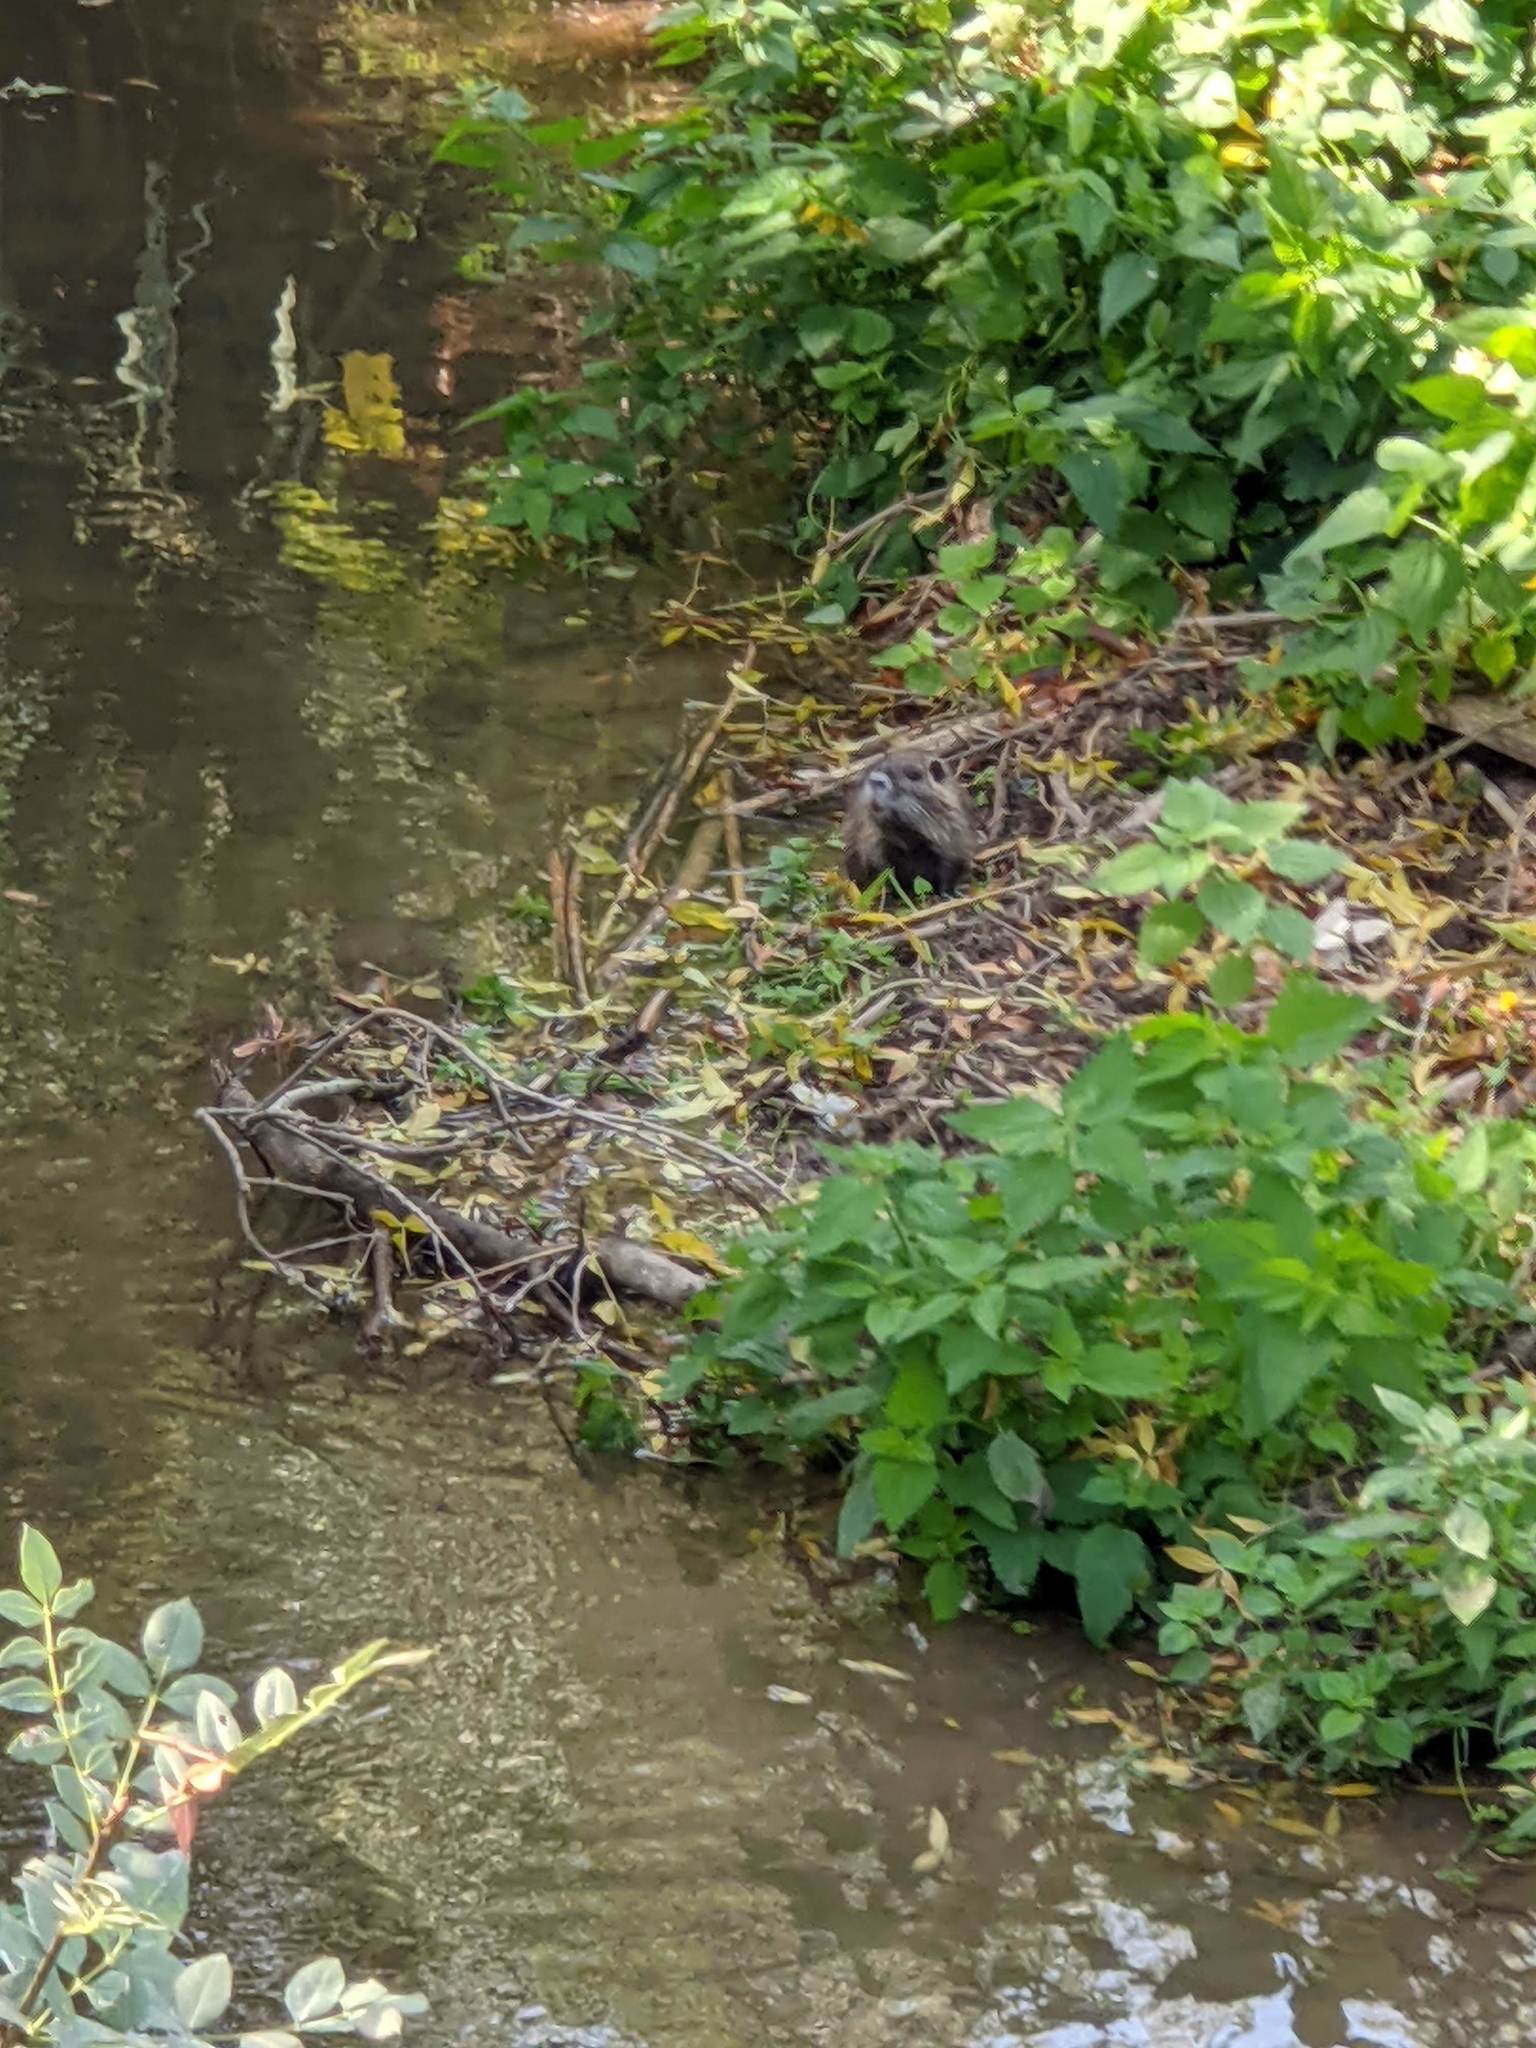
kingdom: Animalia
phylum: Chordata
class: Mammalia
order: Rodentia
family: Myocastoridae
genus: Myocastor
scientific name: Myocastor coypus
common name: Coypu
